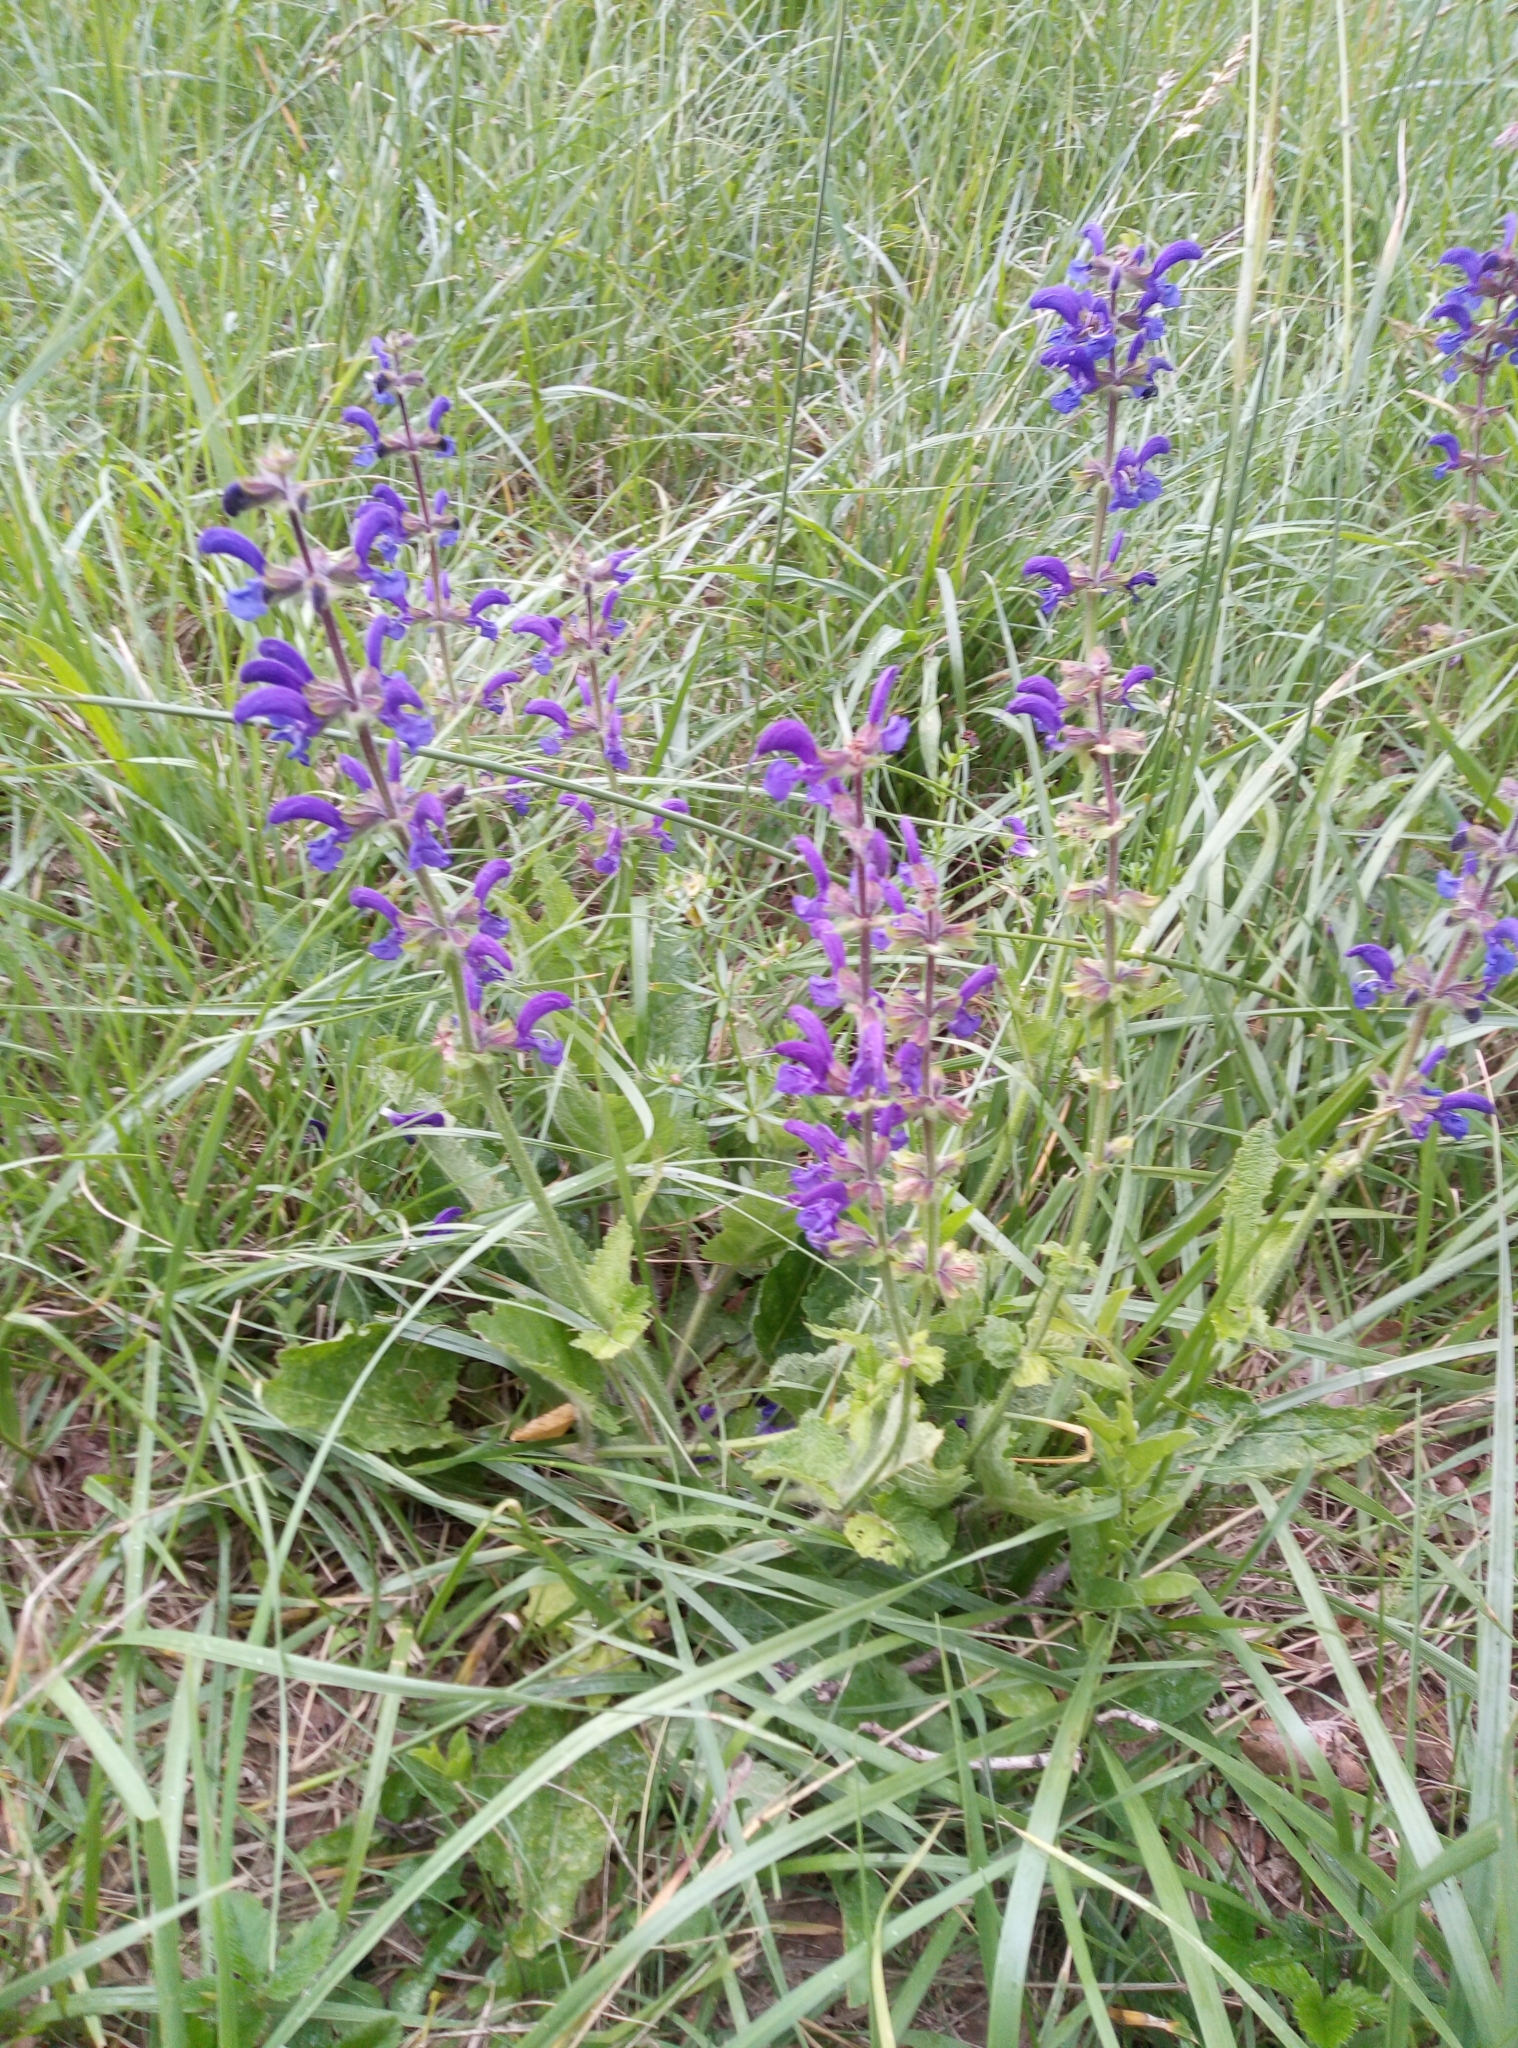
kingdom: Plantae
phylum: Tracheophyta
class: Magnoliopsida
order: Lamiales
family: Lamiaceae
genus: Salvia
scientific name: Salvia pratensis
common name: Meadow sage
